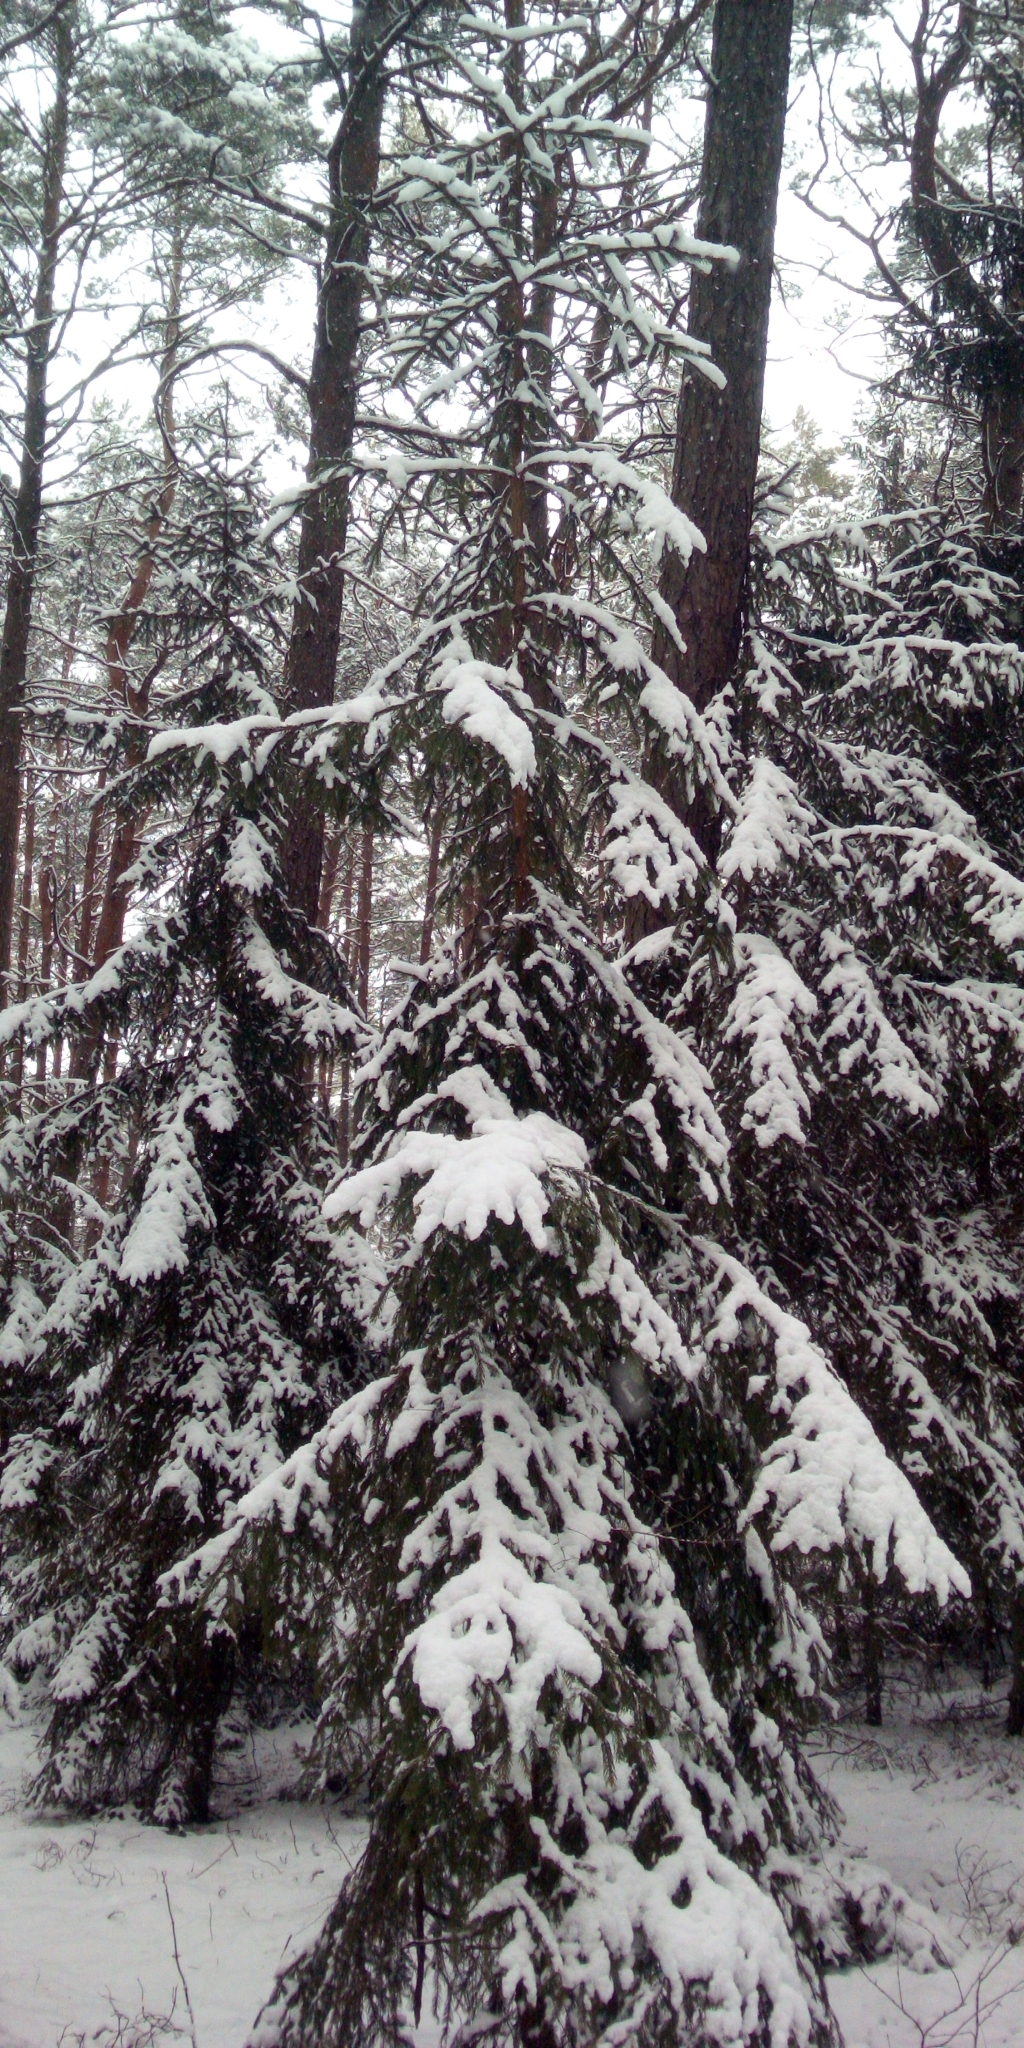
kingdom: Plantae
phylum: Tracheophyta
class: Pinopsida
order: Pinales
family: Pinaceae
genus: Picea
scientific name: Picea abies
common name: Norway spruce
